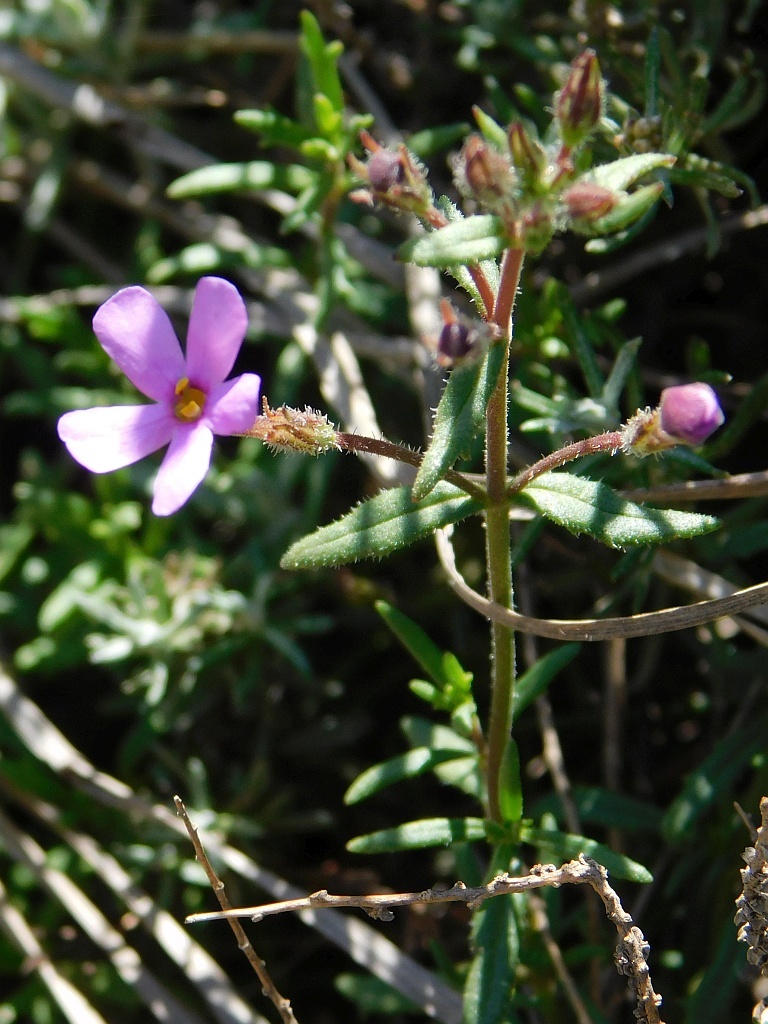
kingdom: Plantae
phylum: Tracheophyta
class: Magnoliopsida
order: Lamiales
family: Scrophulariaceae
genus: Chaenostoma
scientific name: Chaenostoma revolutum
